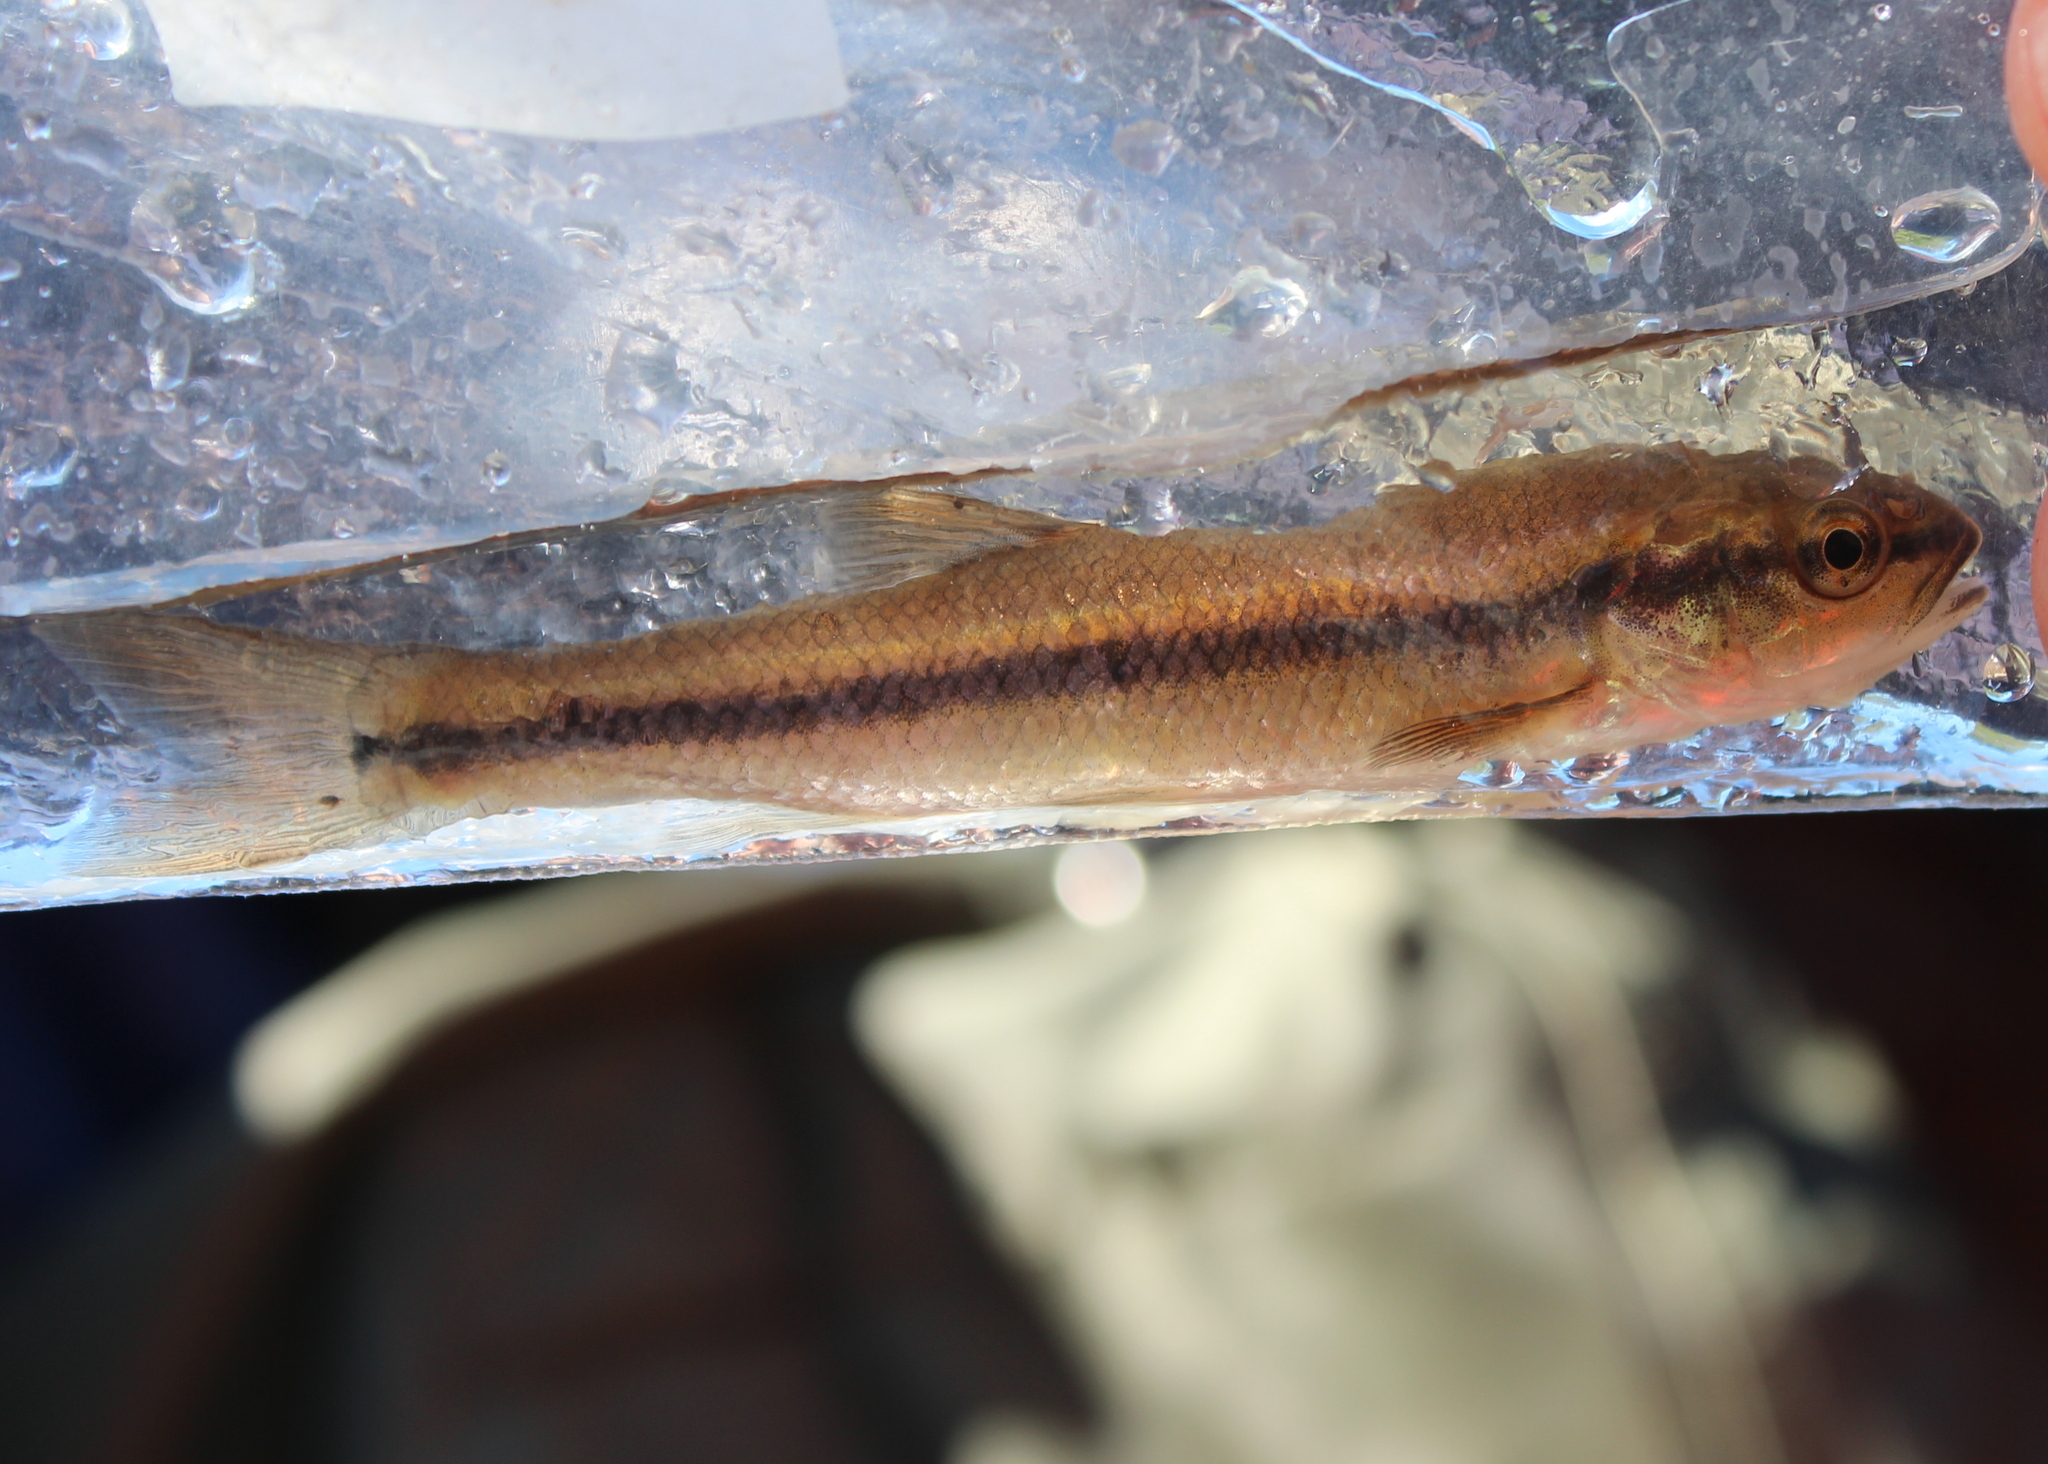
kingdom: Animalia
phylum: Chordata
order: Cypriniformes
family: Cyprinidae
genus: Semotilus
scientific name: Semotilus atromaculatus
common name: Creek chub
